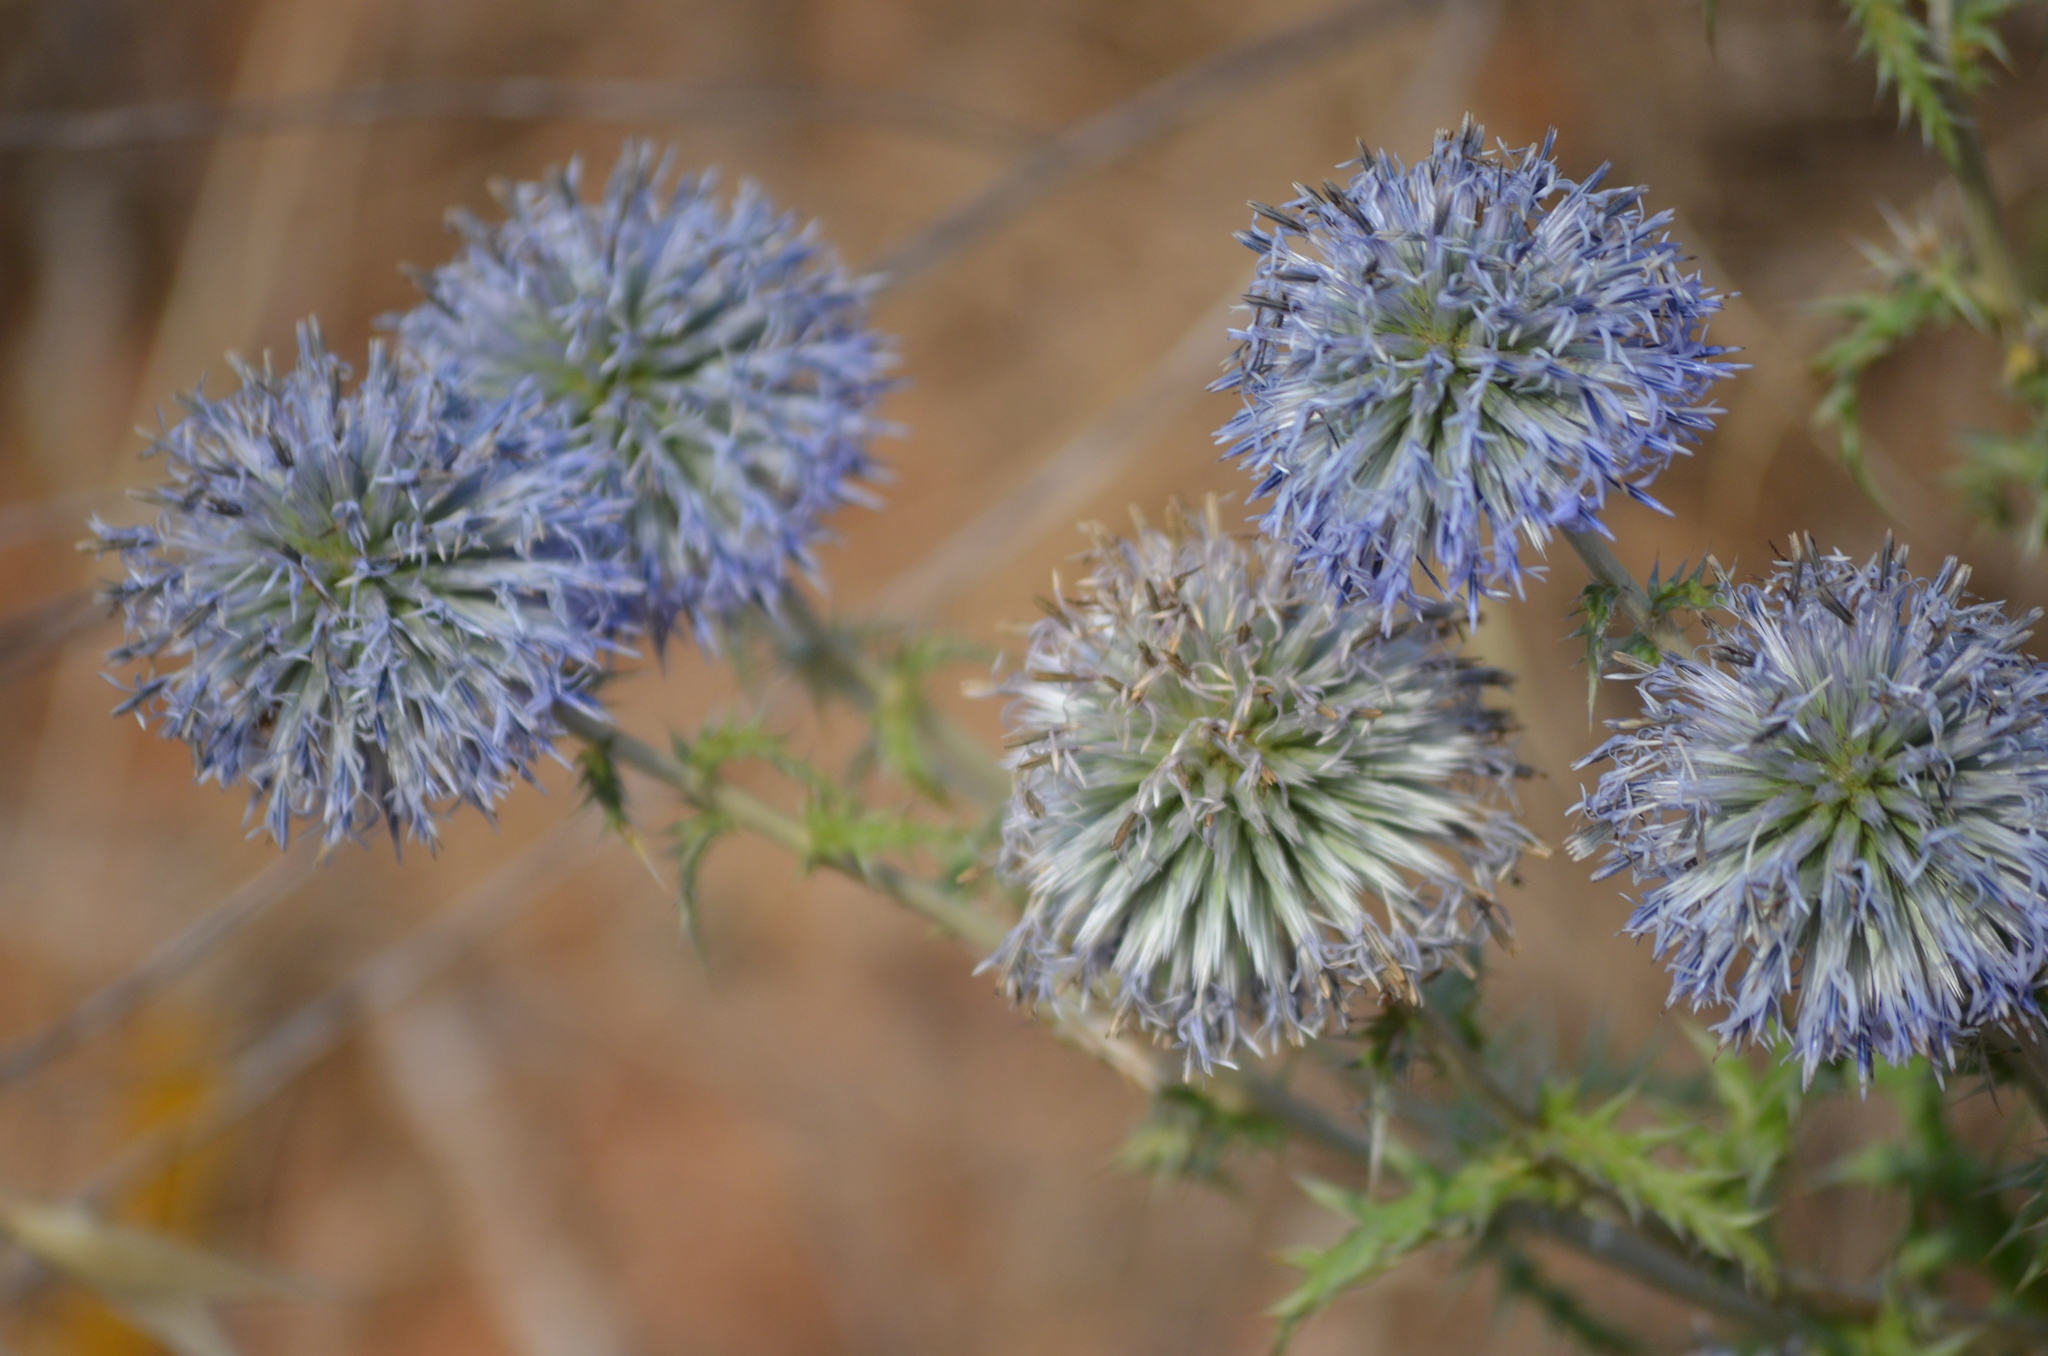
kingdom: Plantae
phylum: Tracheophyta
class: Magnoliopsida
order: Asterales
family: Asteraceae
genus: Echinops
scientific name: Echinops ritro
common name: Globe thistle
